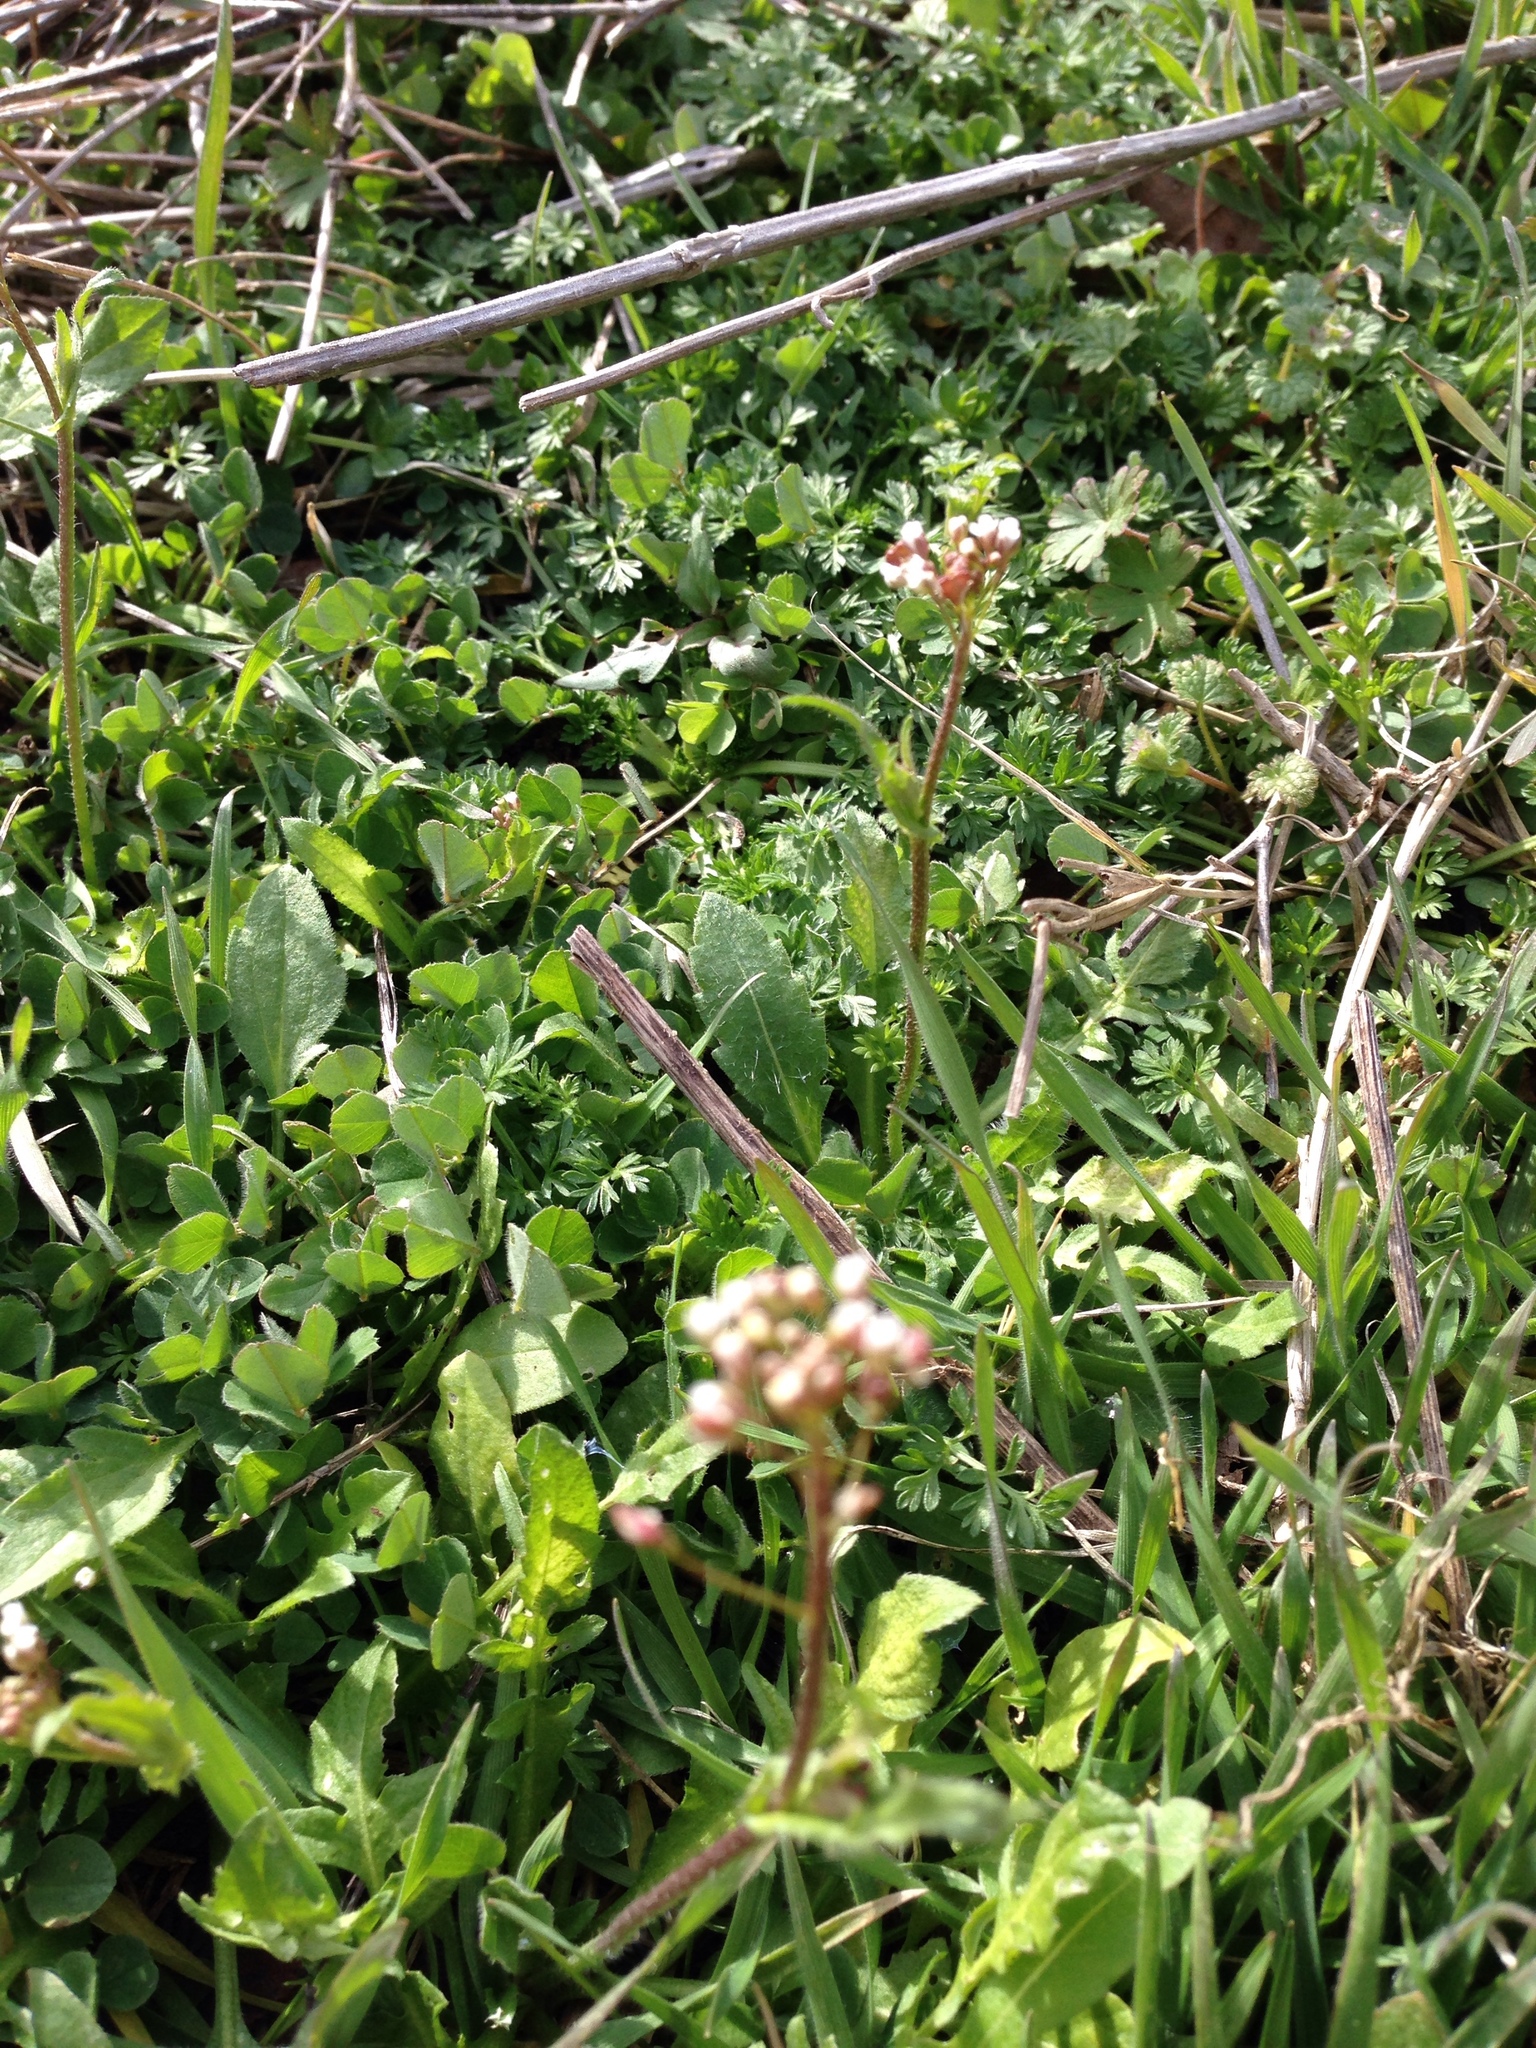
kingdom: Plantae
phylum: Tracheophyta
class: Magnoliopsida
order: Brassicales
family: Brassicaceae
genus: Capsella
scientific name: Capsella bursa-pastoris
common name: Shepherd's purse
